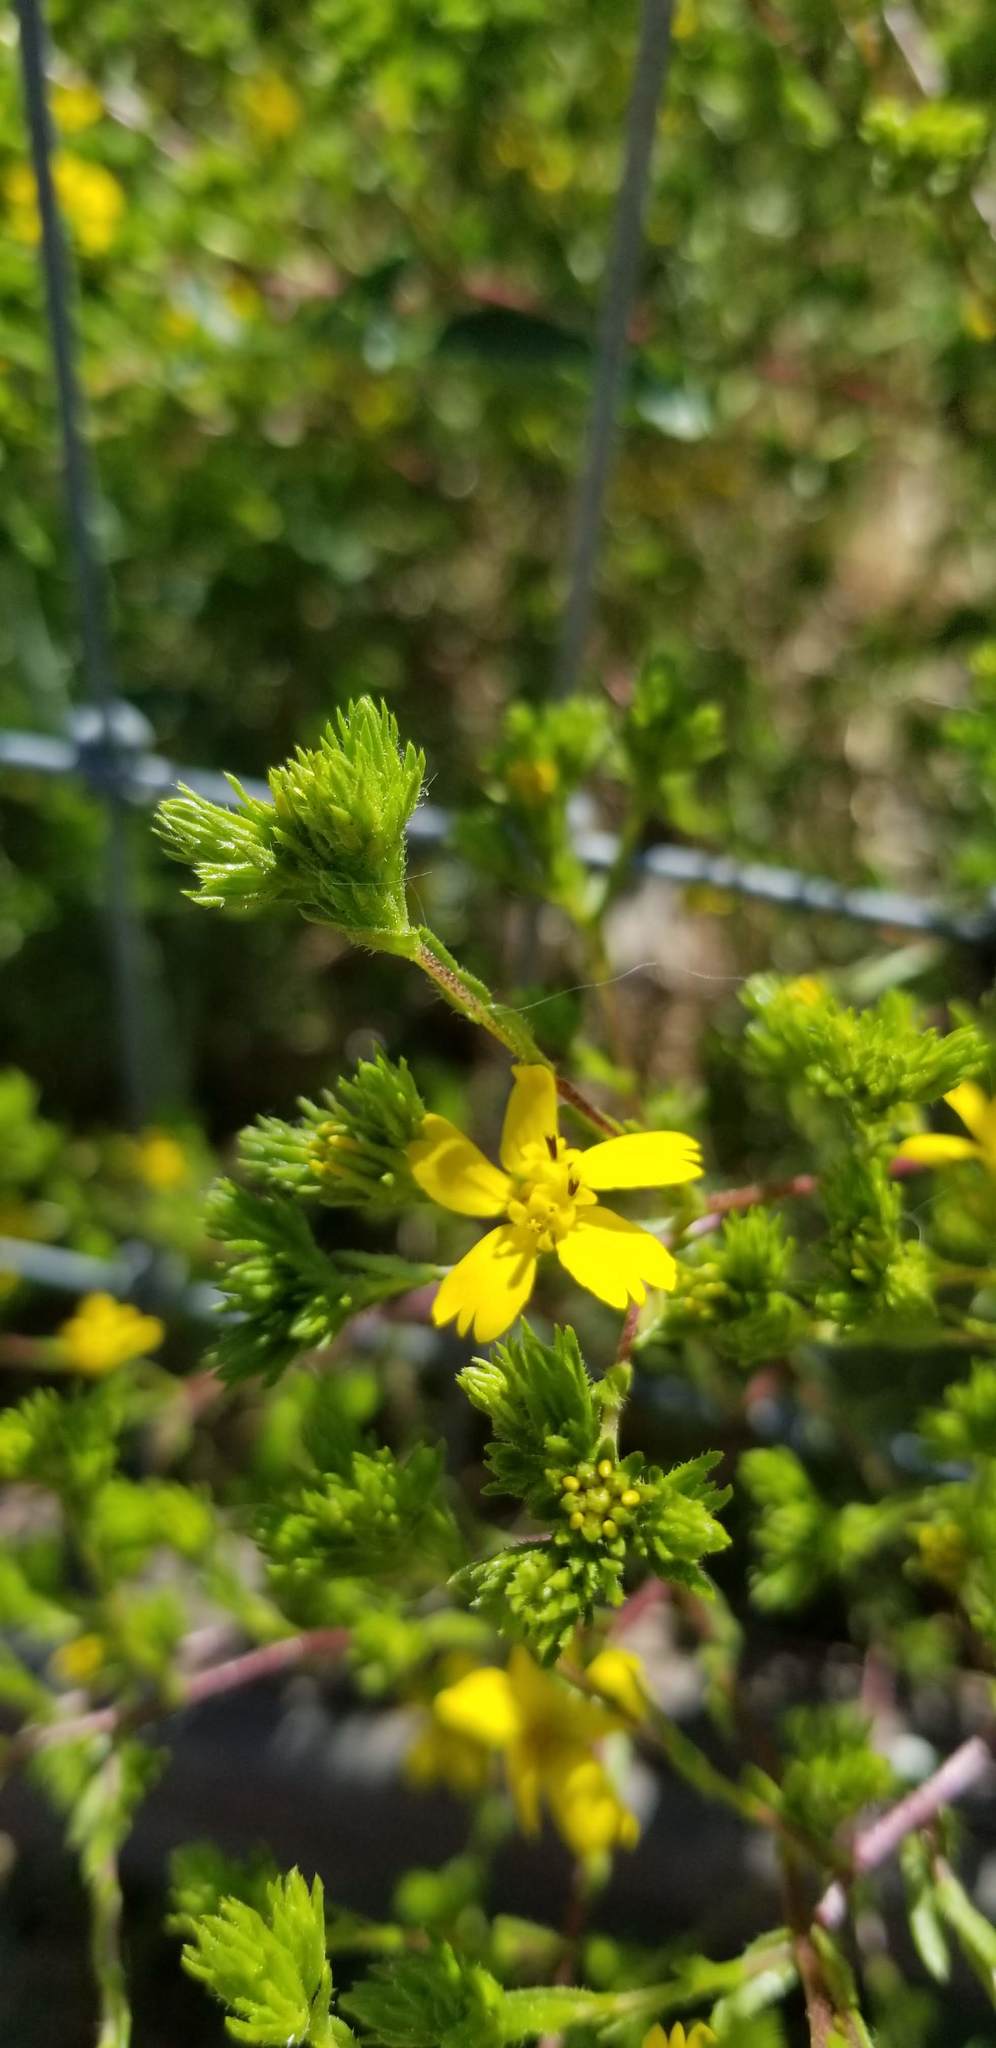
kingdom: Plantae
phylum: Tracheophyta
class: Magnoliopsida
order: Asterales
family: Asteraceae
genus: Deinandra
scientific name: Deinandra fasciculata
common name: Clustered tarweed
